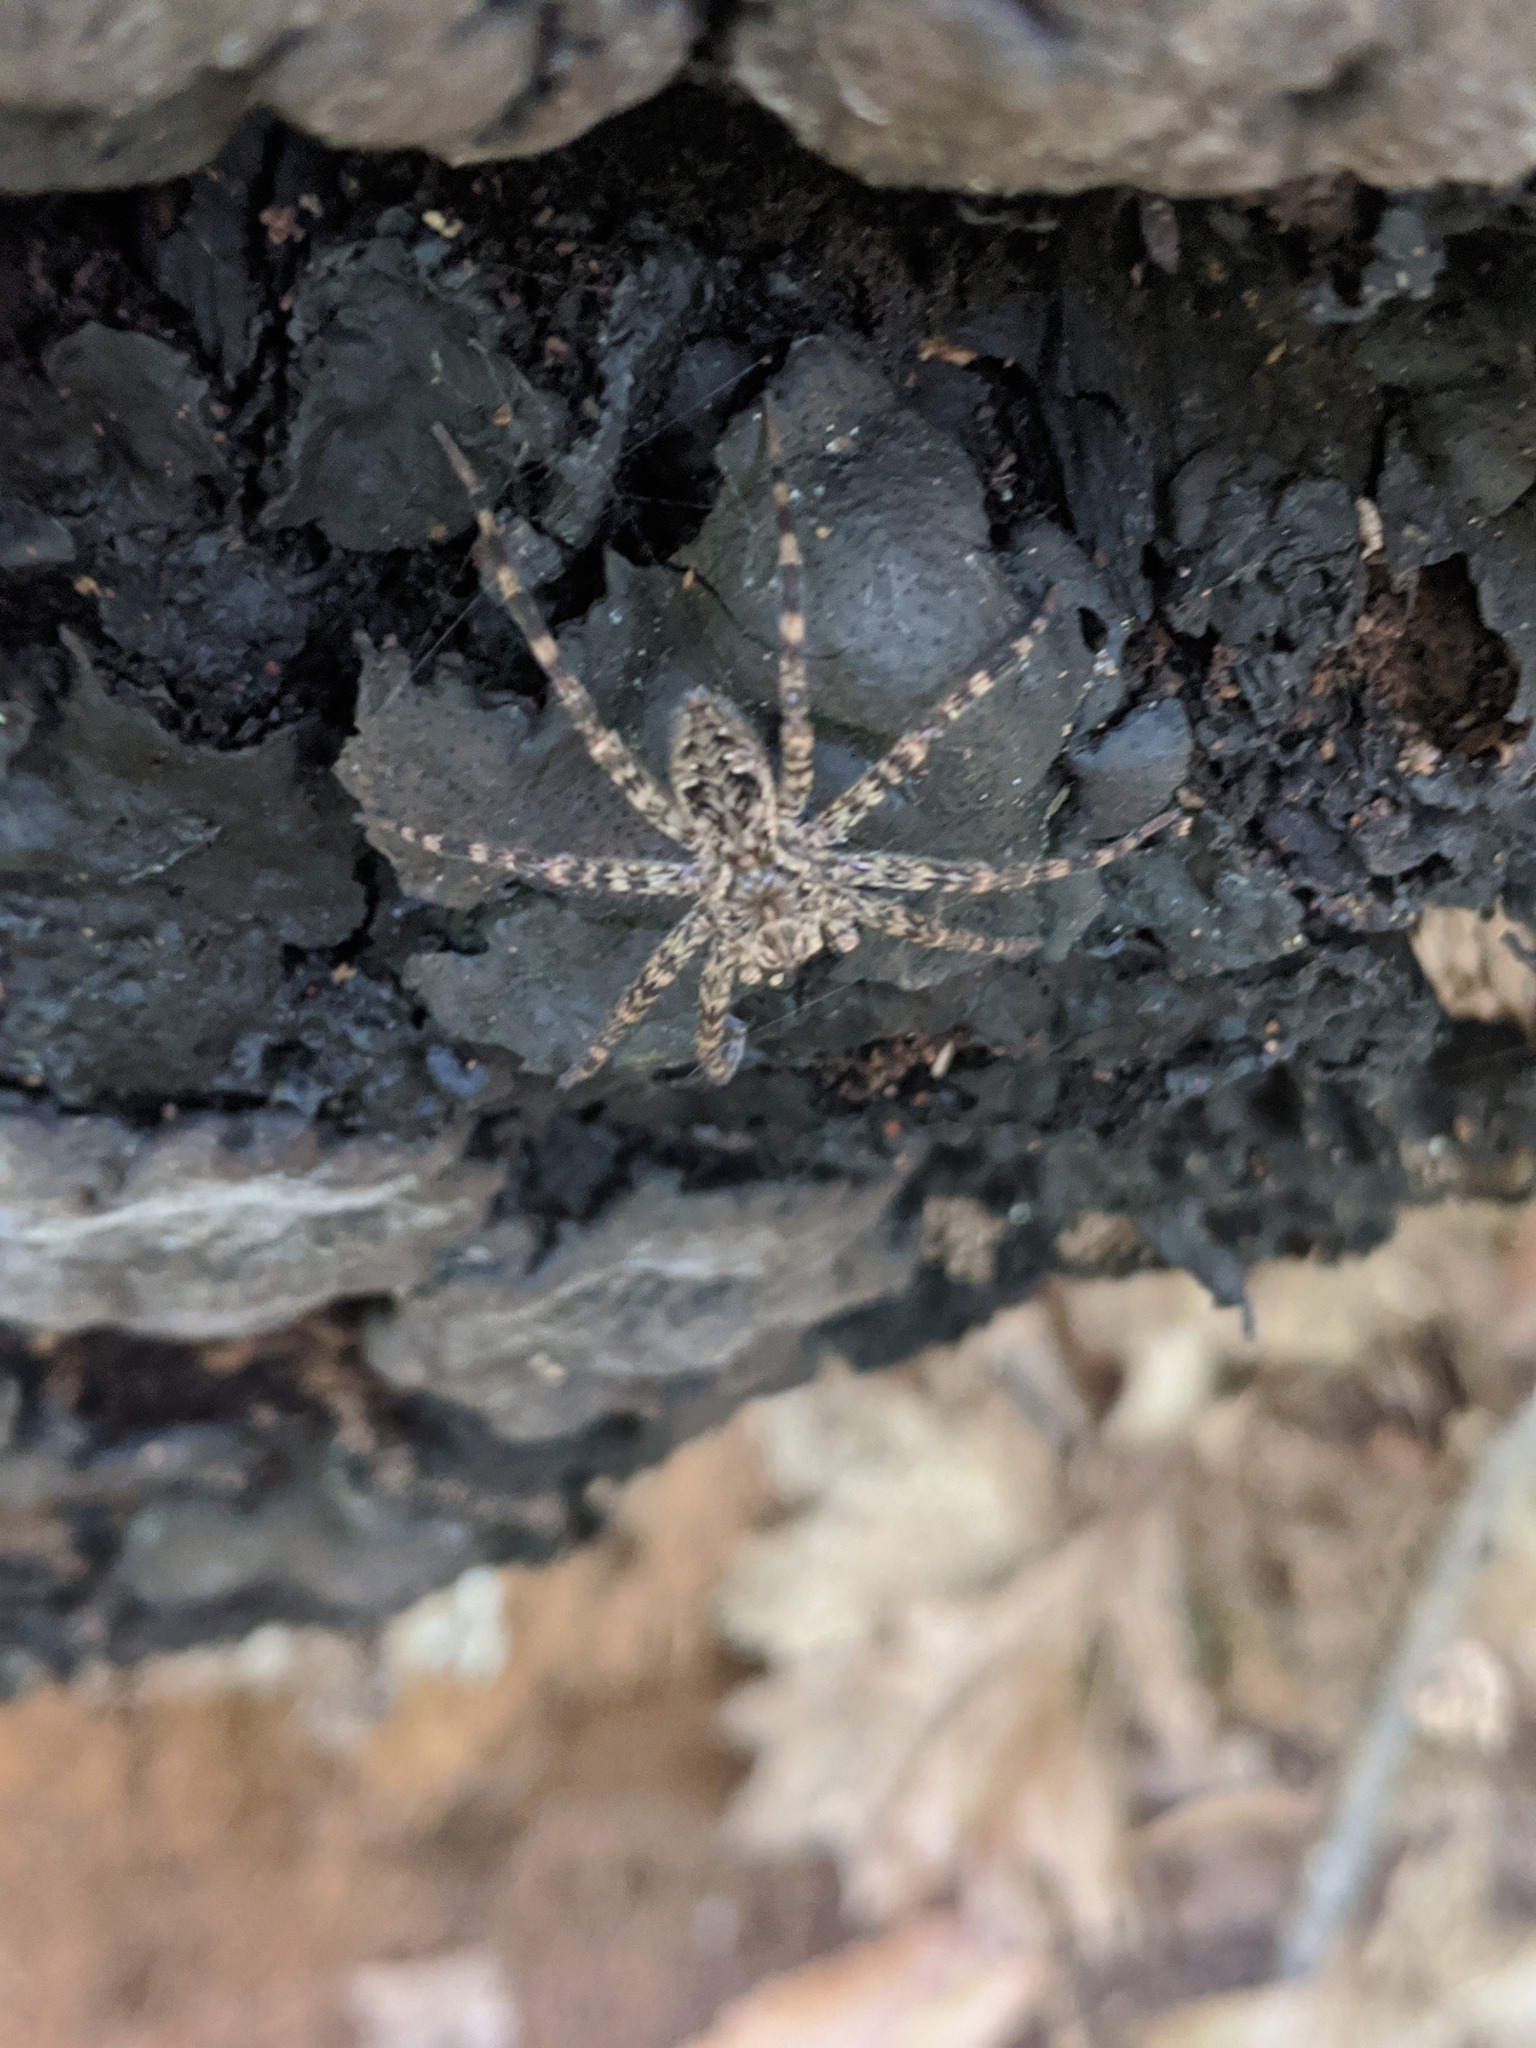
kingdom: Animalia
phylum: Arthropoda
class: Arachnida
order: Araneae
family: Pisauridae
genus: Dolomedes
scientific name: Dolomedes tenebrosus
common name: Dark fishing spider
